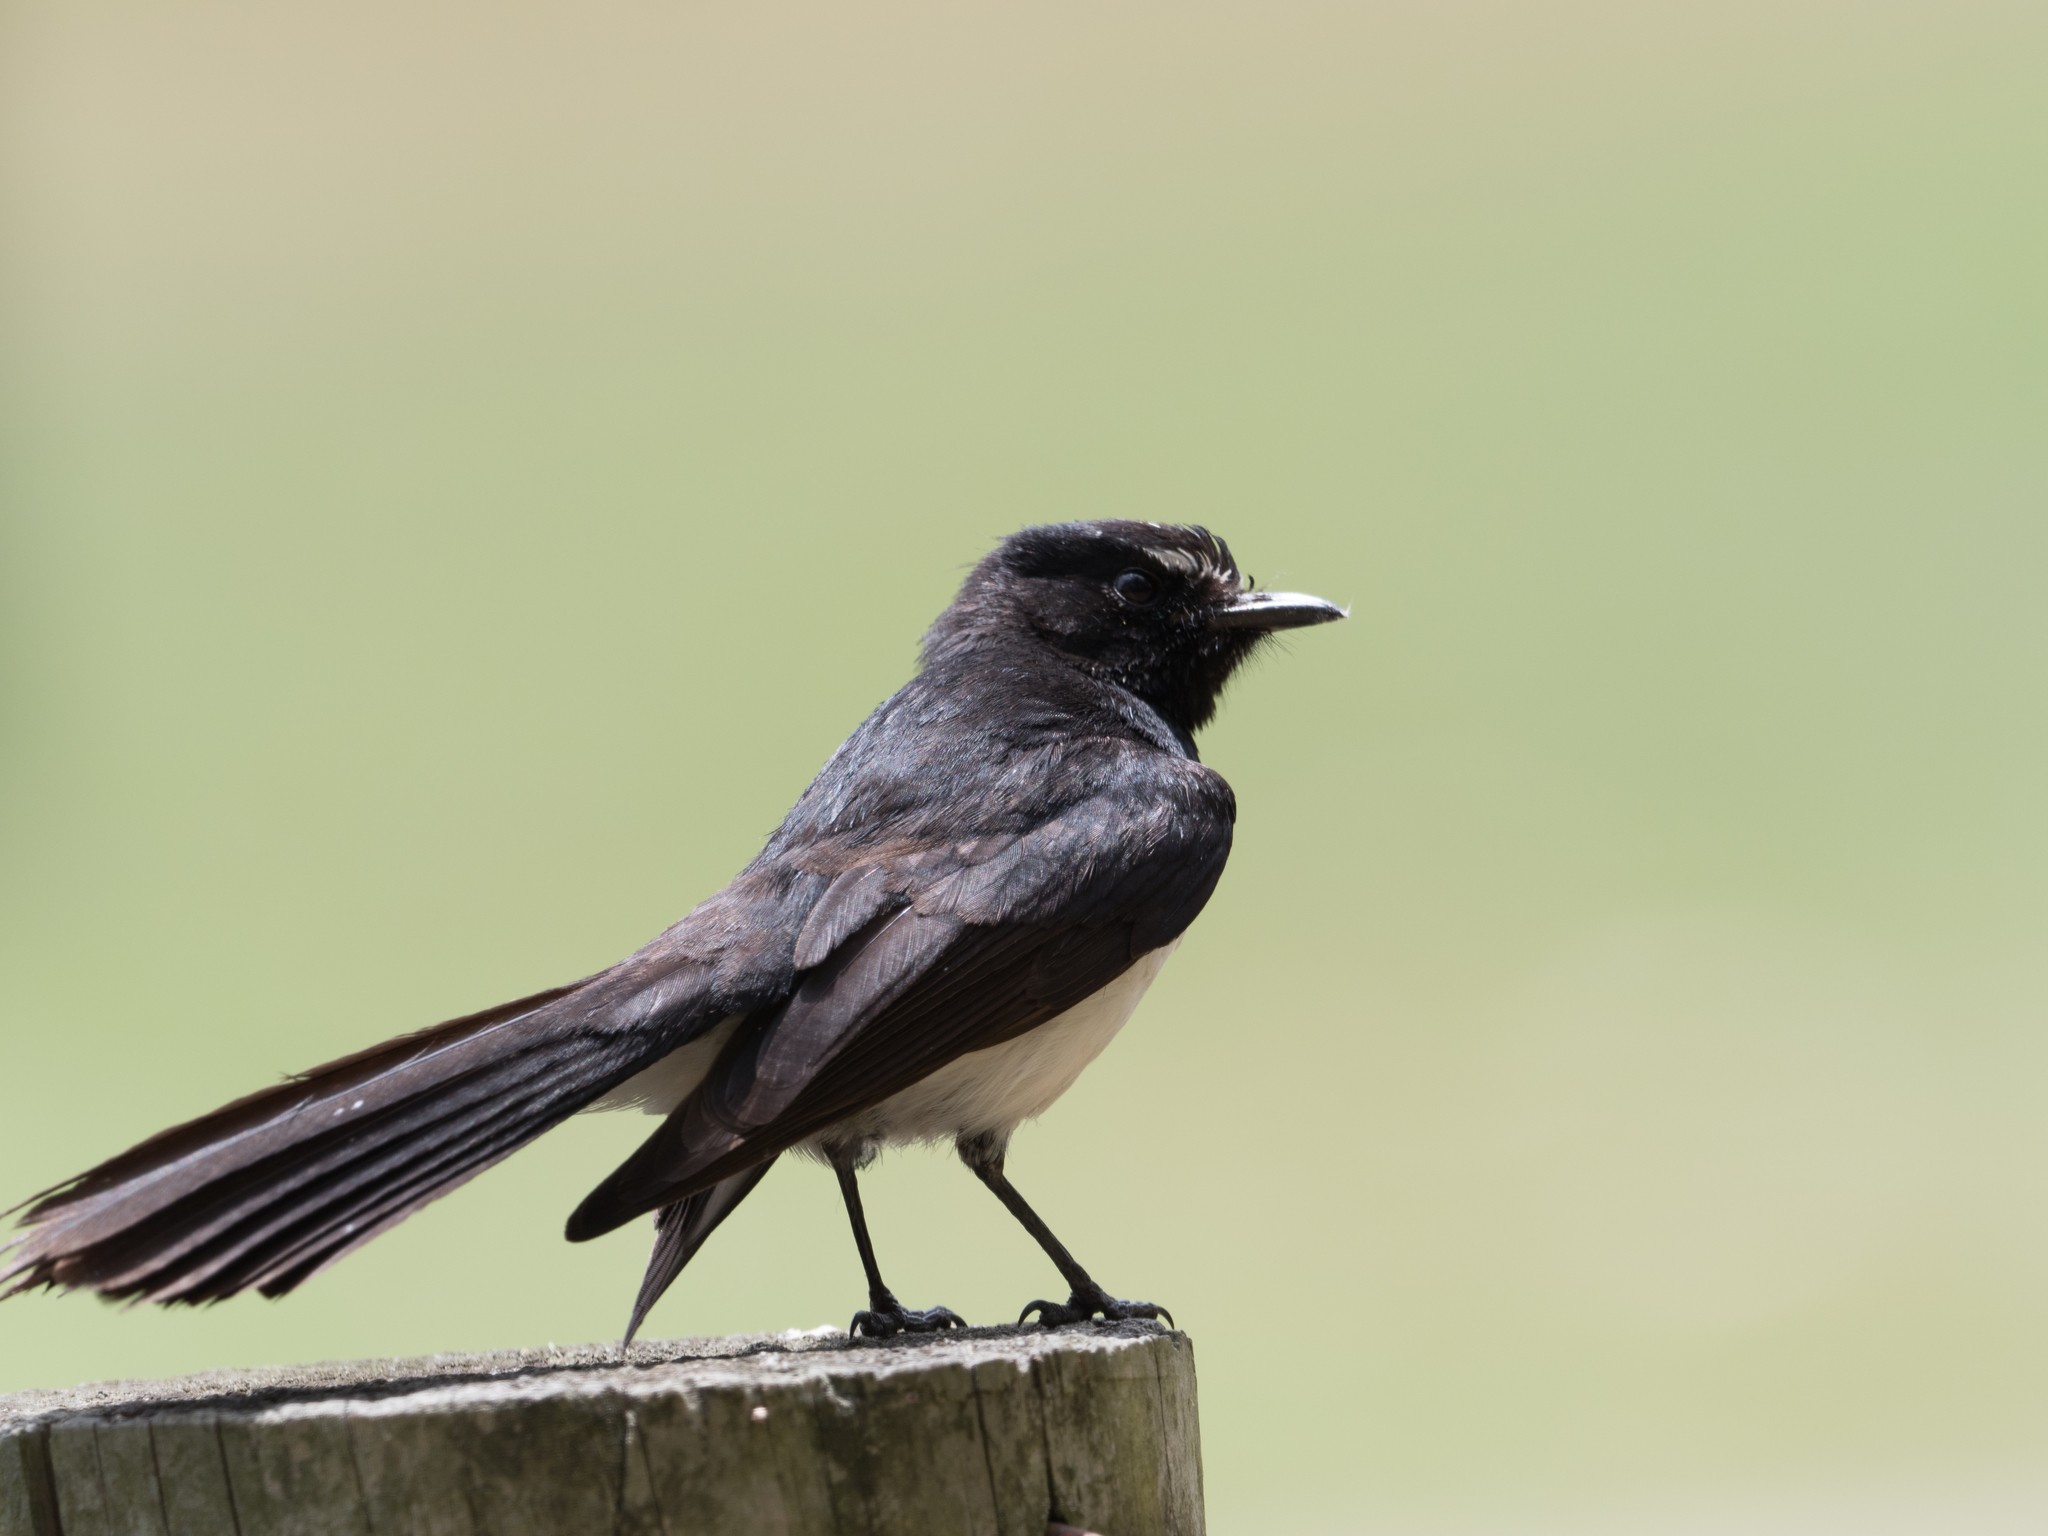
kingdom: Animalia
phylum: Chordata
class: Aves
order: Passeriformes
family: Rhipiduridae
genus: Rhipidura
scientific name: Rhipidura leucophrys
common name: Willie wagtail
